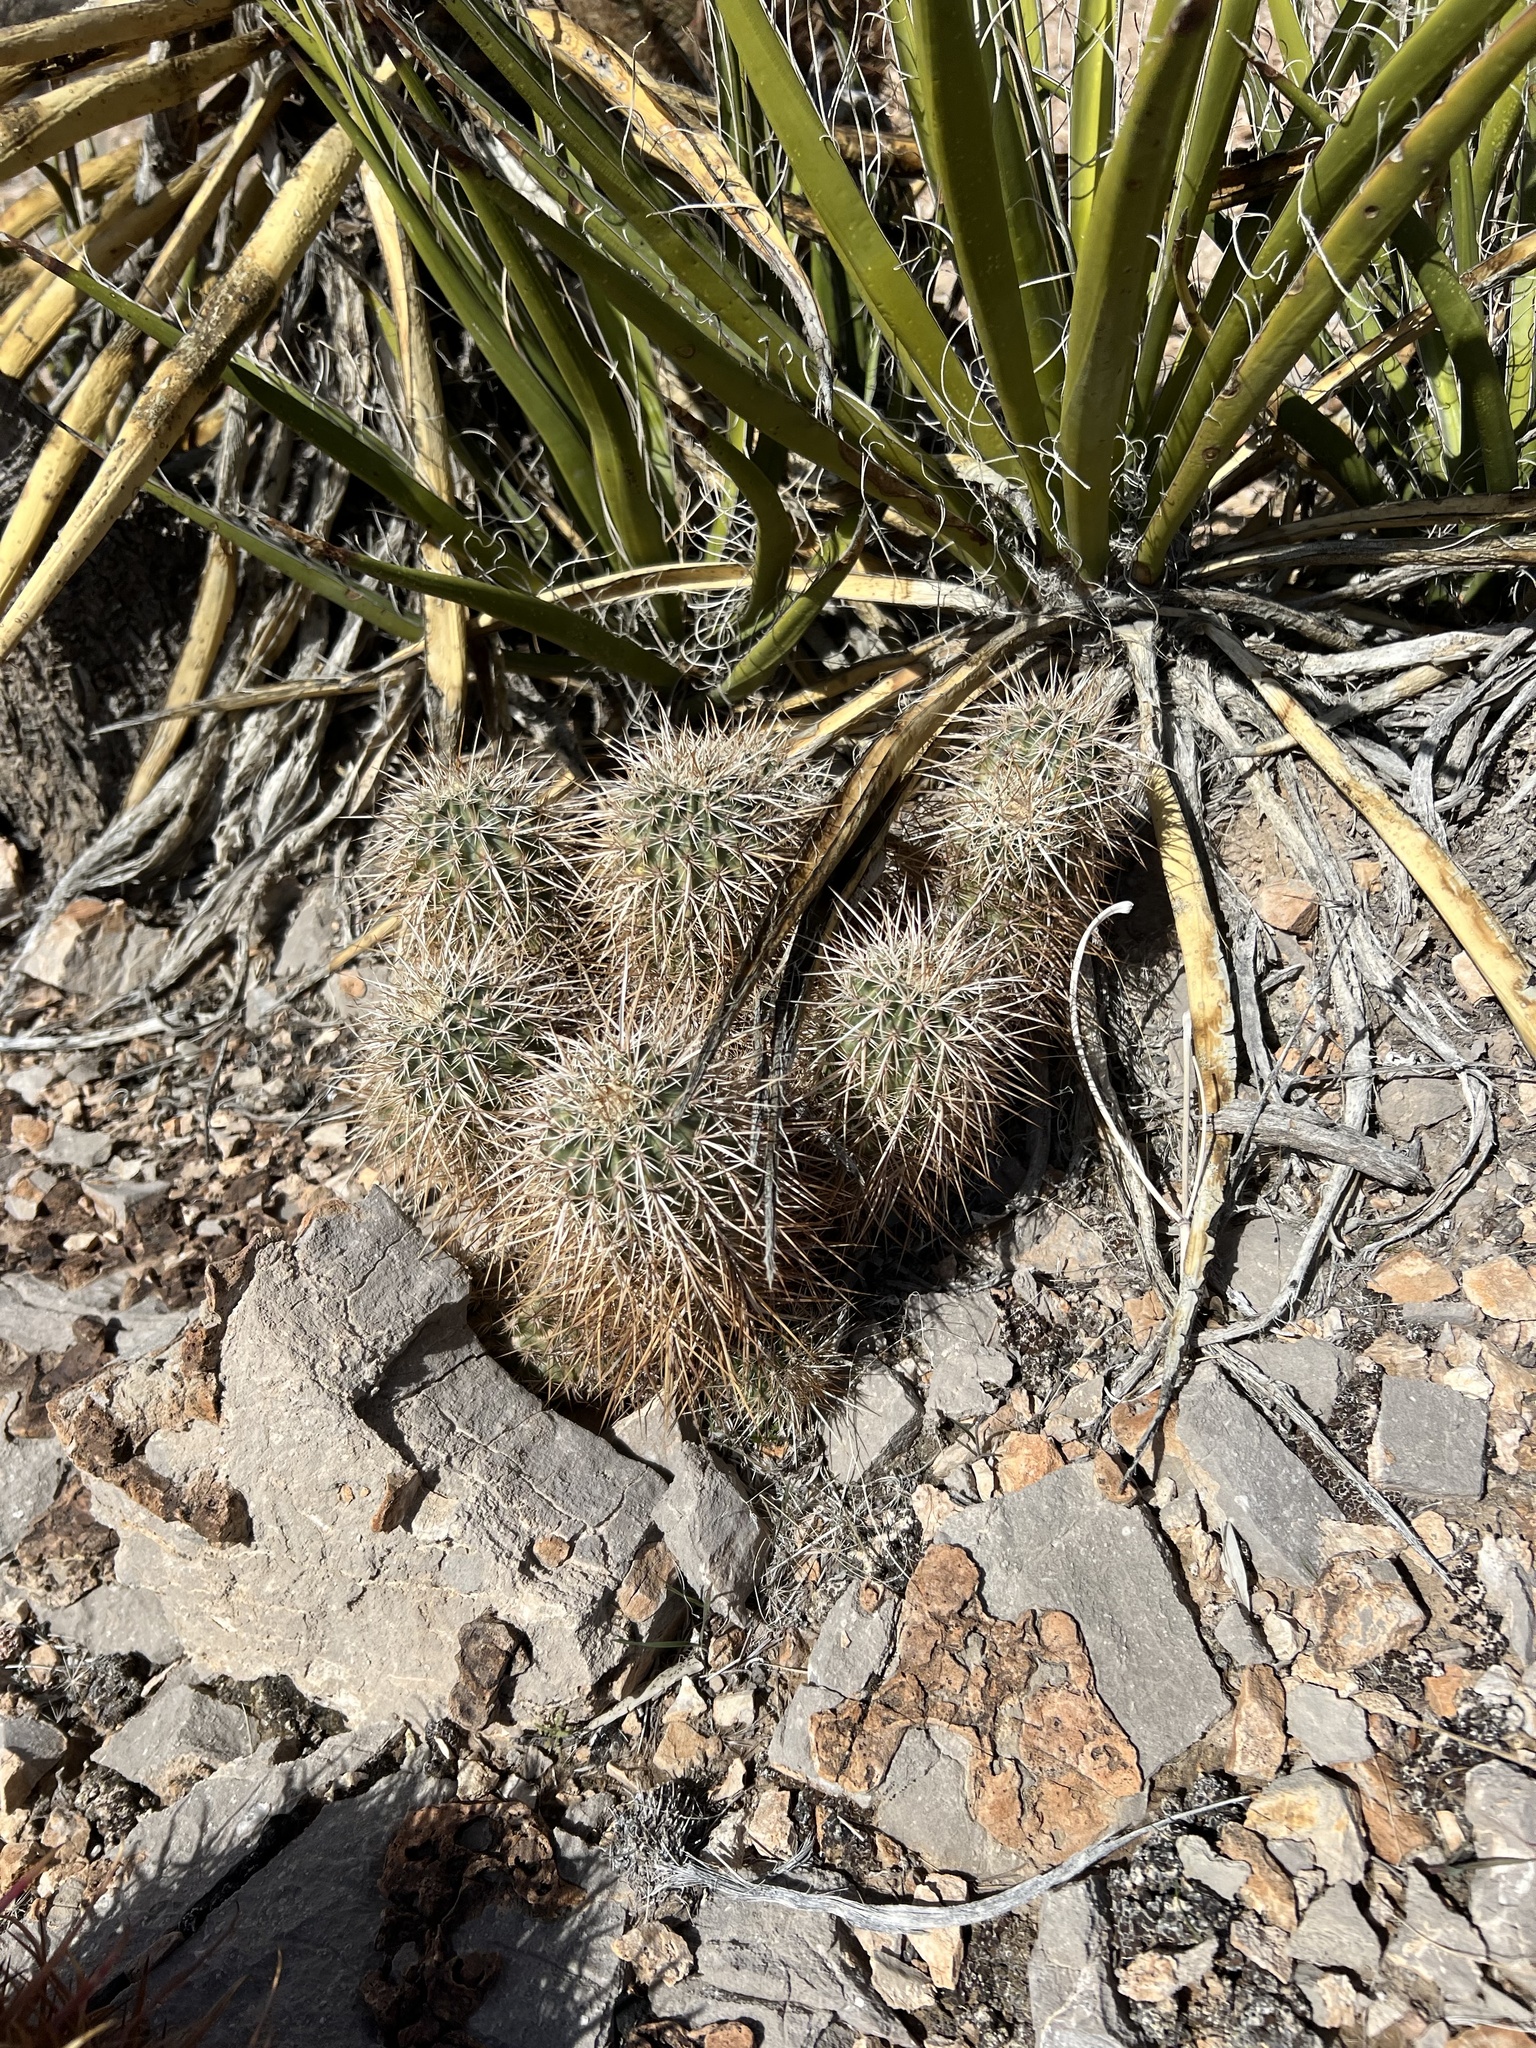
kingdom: Plantae
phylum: Tracheophyta
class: Magnoliopsida
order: Caryophyllales
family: Cactaceae
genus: Echinocereus
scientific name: Echinocereus engelmannii
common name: Engelmann's hedgehog cactus
